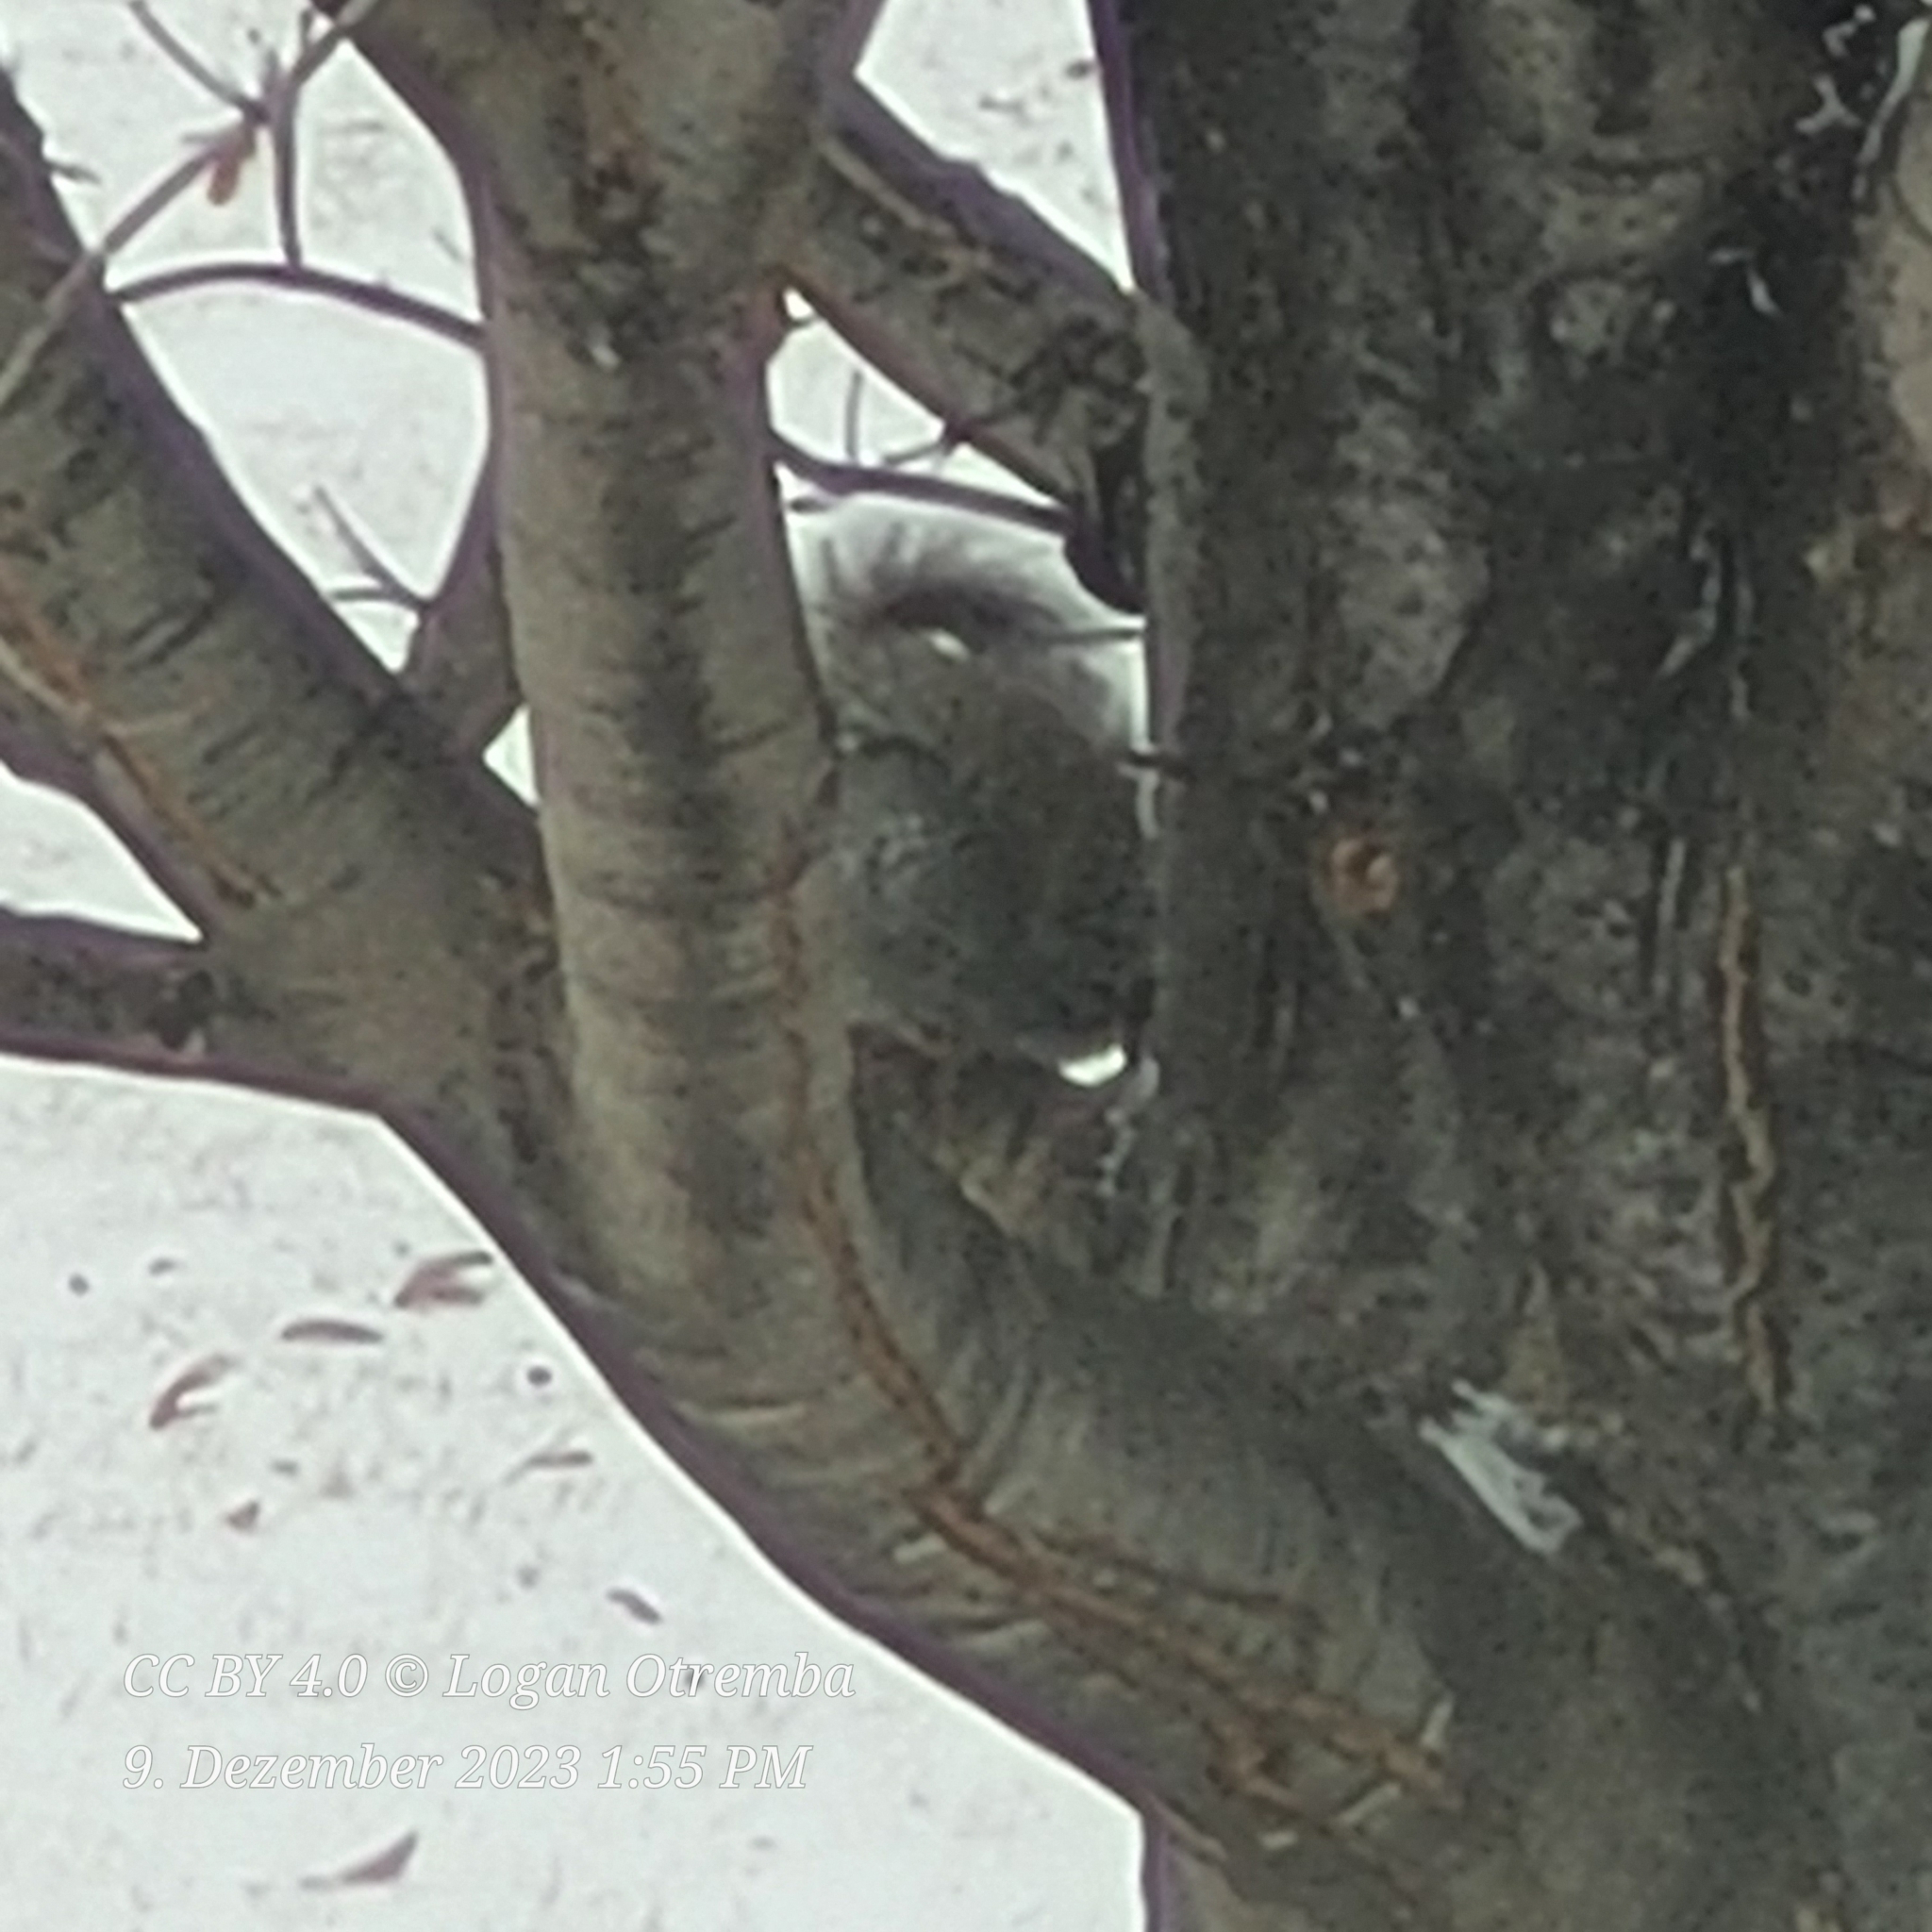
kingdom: Animalia
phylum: Chordata
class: Mammalia
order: Rodentia
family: Sciuridae
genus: Sciurus
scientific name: Sciurus carolinensis
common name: Eastern gray squirrel
